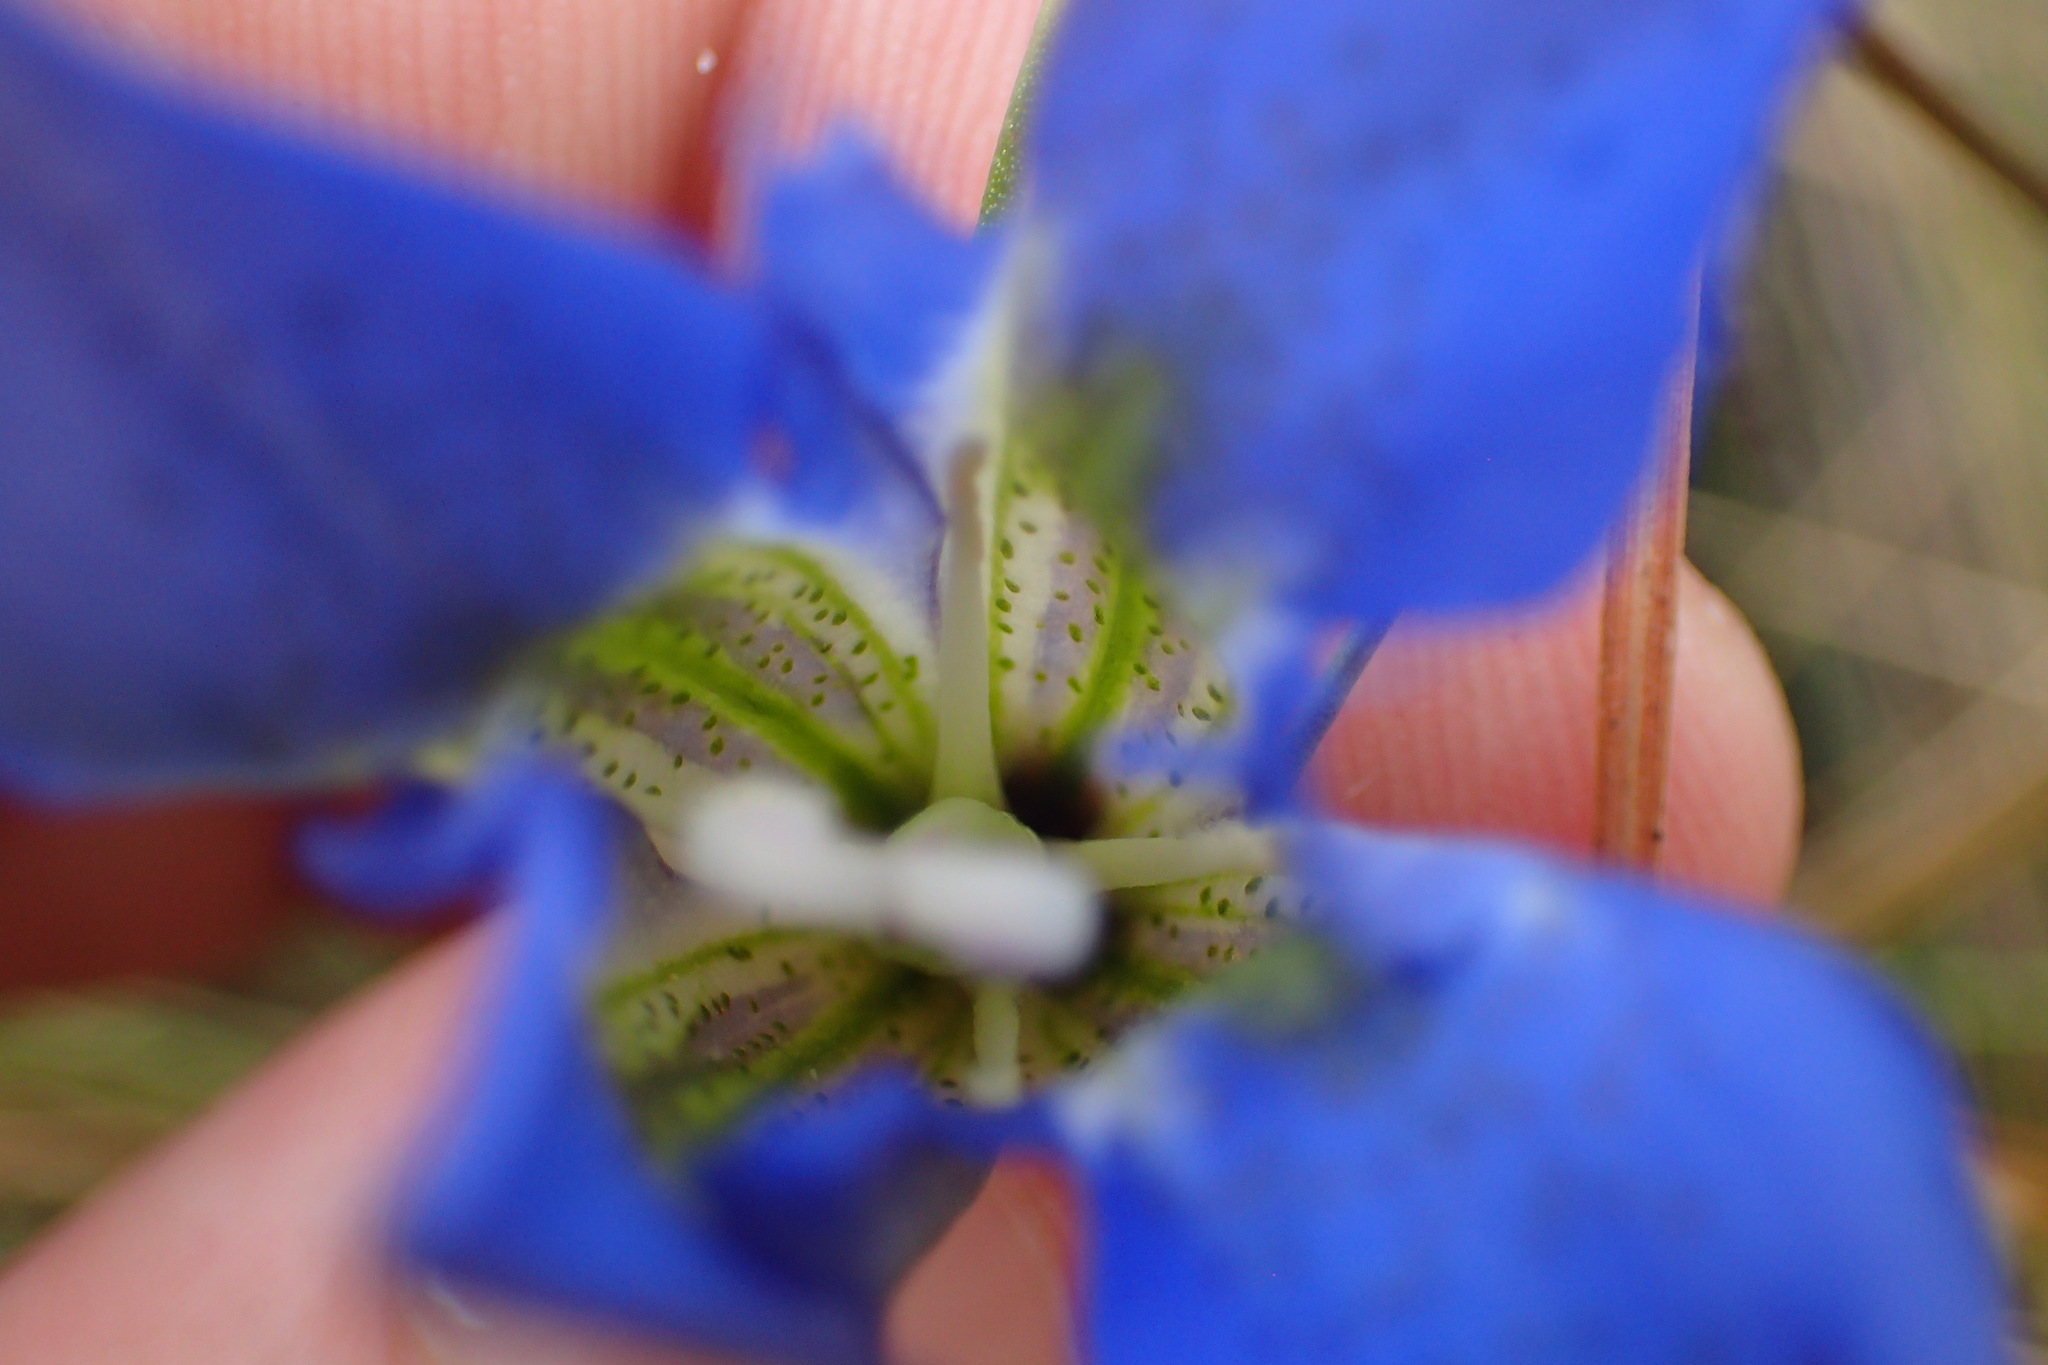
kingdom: Plantae
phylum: Tracheophyta
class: Magnoliopsida
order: Gentianales
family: Gentianaceae
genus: Gentiana
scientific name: Gentiana autumnalis
